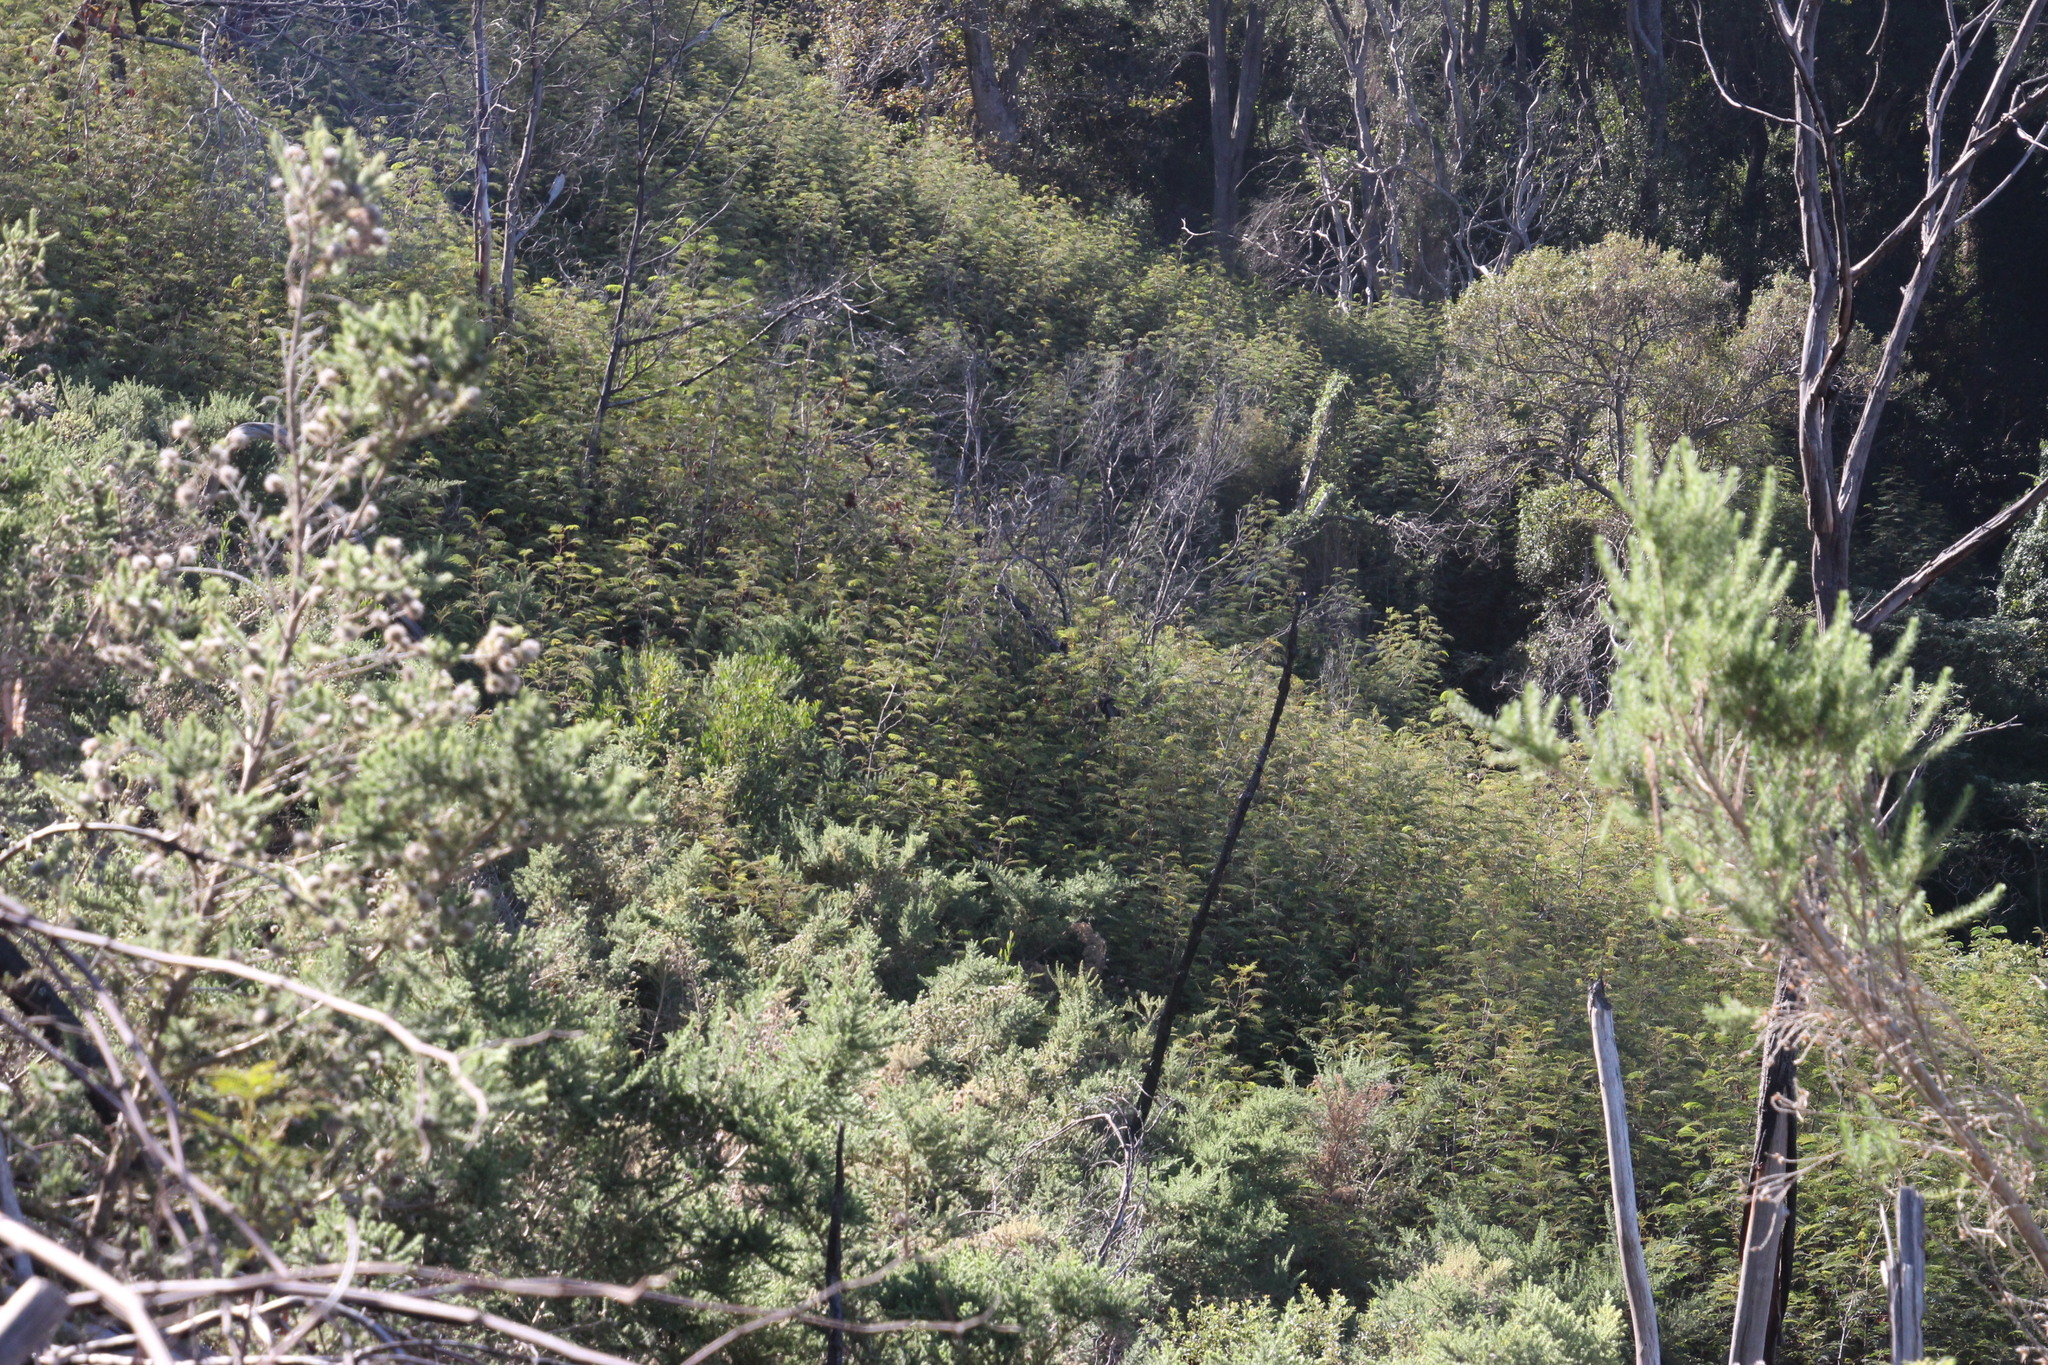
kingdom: Plantae
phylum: Tracheophyta
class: Magnoliopsida
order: Fabales
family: Fabaceae
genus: Paraserianthes
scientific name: Paraserianthes lophantha
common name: Plume albizia
